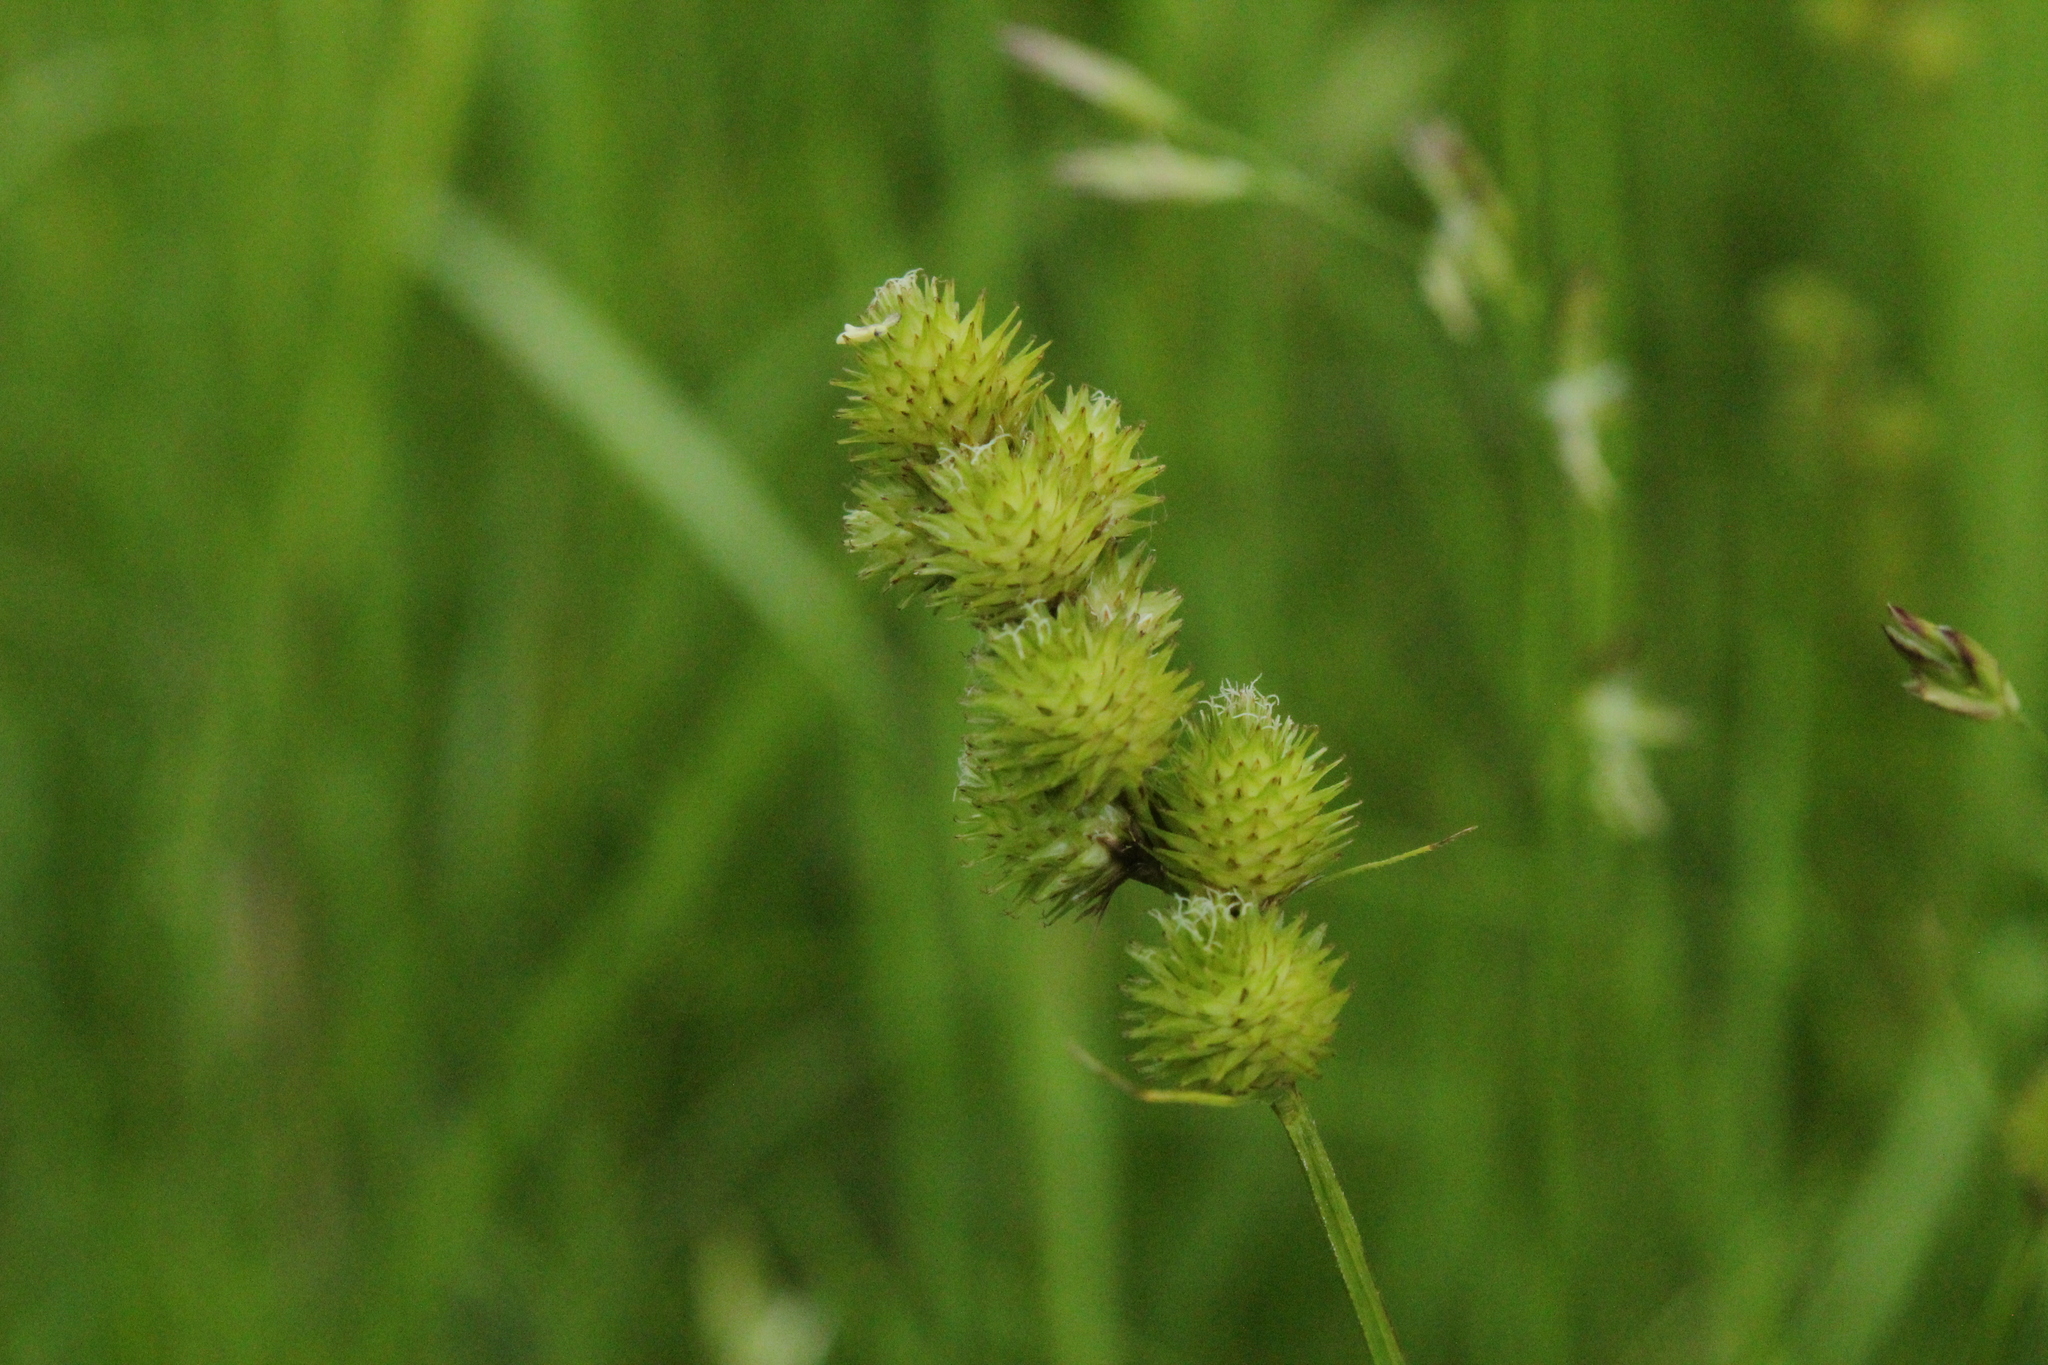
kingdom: Plantae
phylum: Tracheophyta
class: Liliopsida
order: Poales
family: Cyperaceae
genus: Carex
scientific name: Carex cristatella
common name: Crested oval sedge
